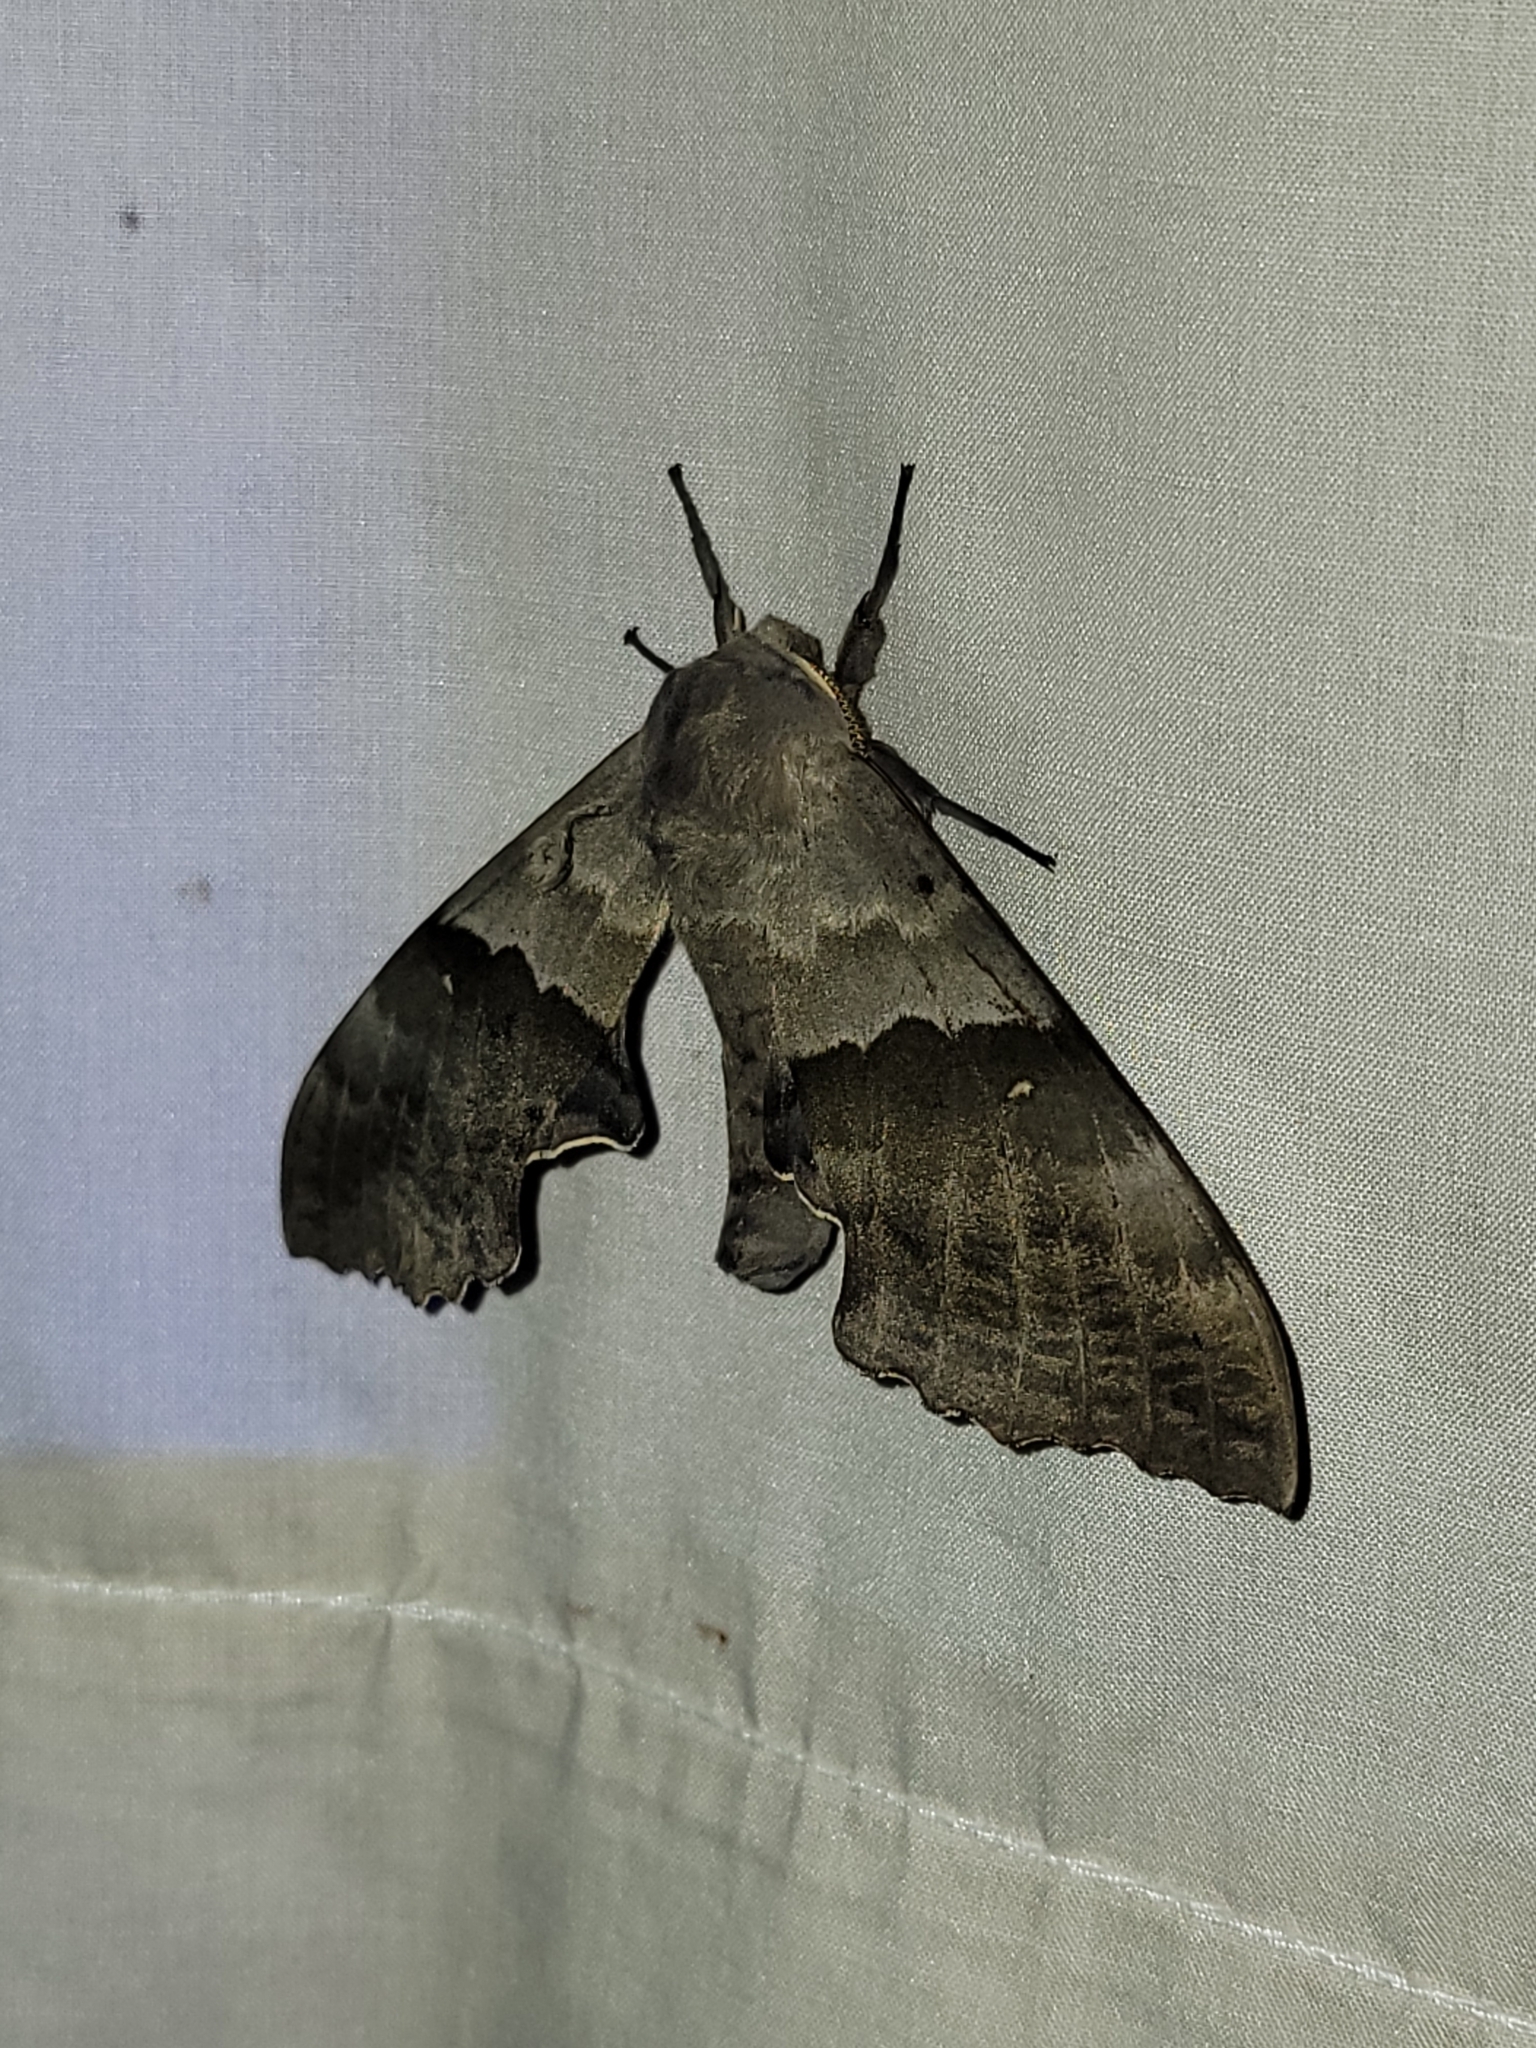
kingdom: Animalia
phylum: Arthropoda
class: Insecta
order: Lepidoptera
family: Sphingidae
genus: Pachysphinx
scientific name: Pachysphinx modesta
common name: Big poplar sphinx
